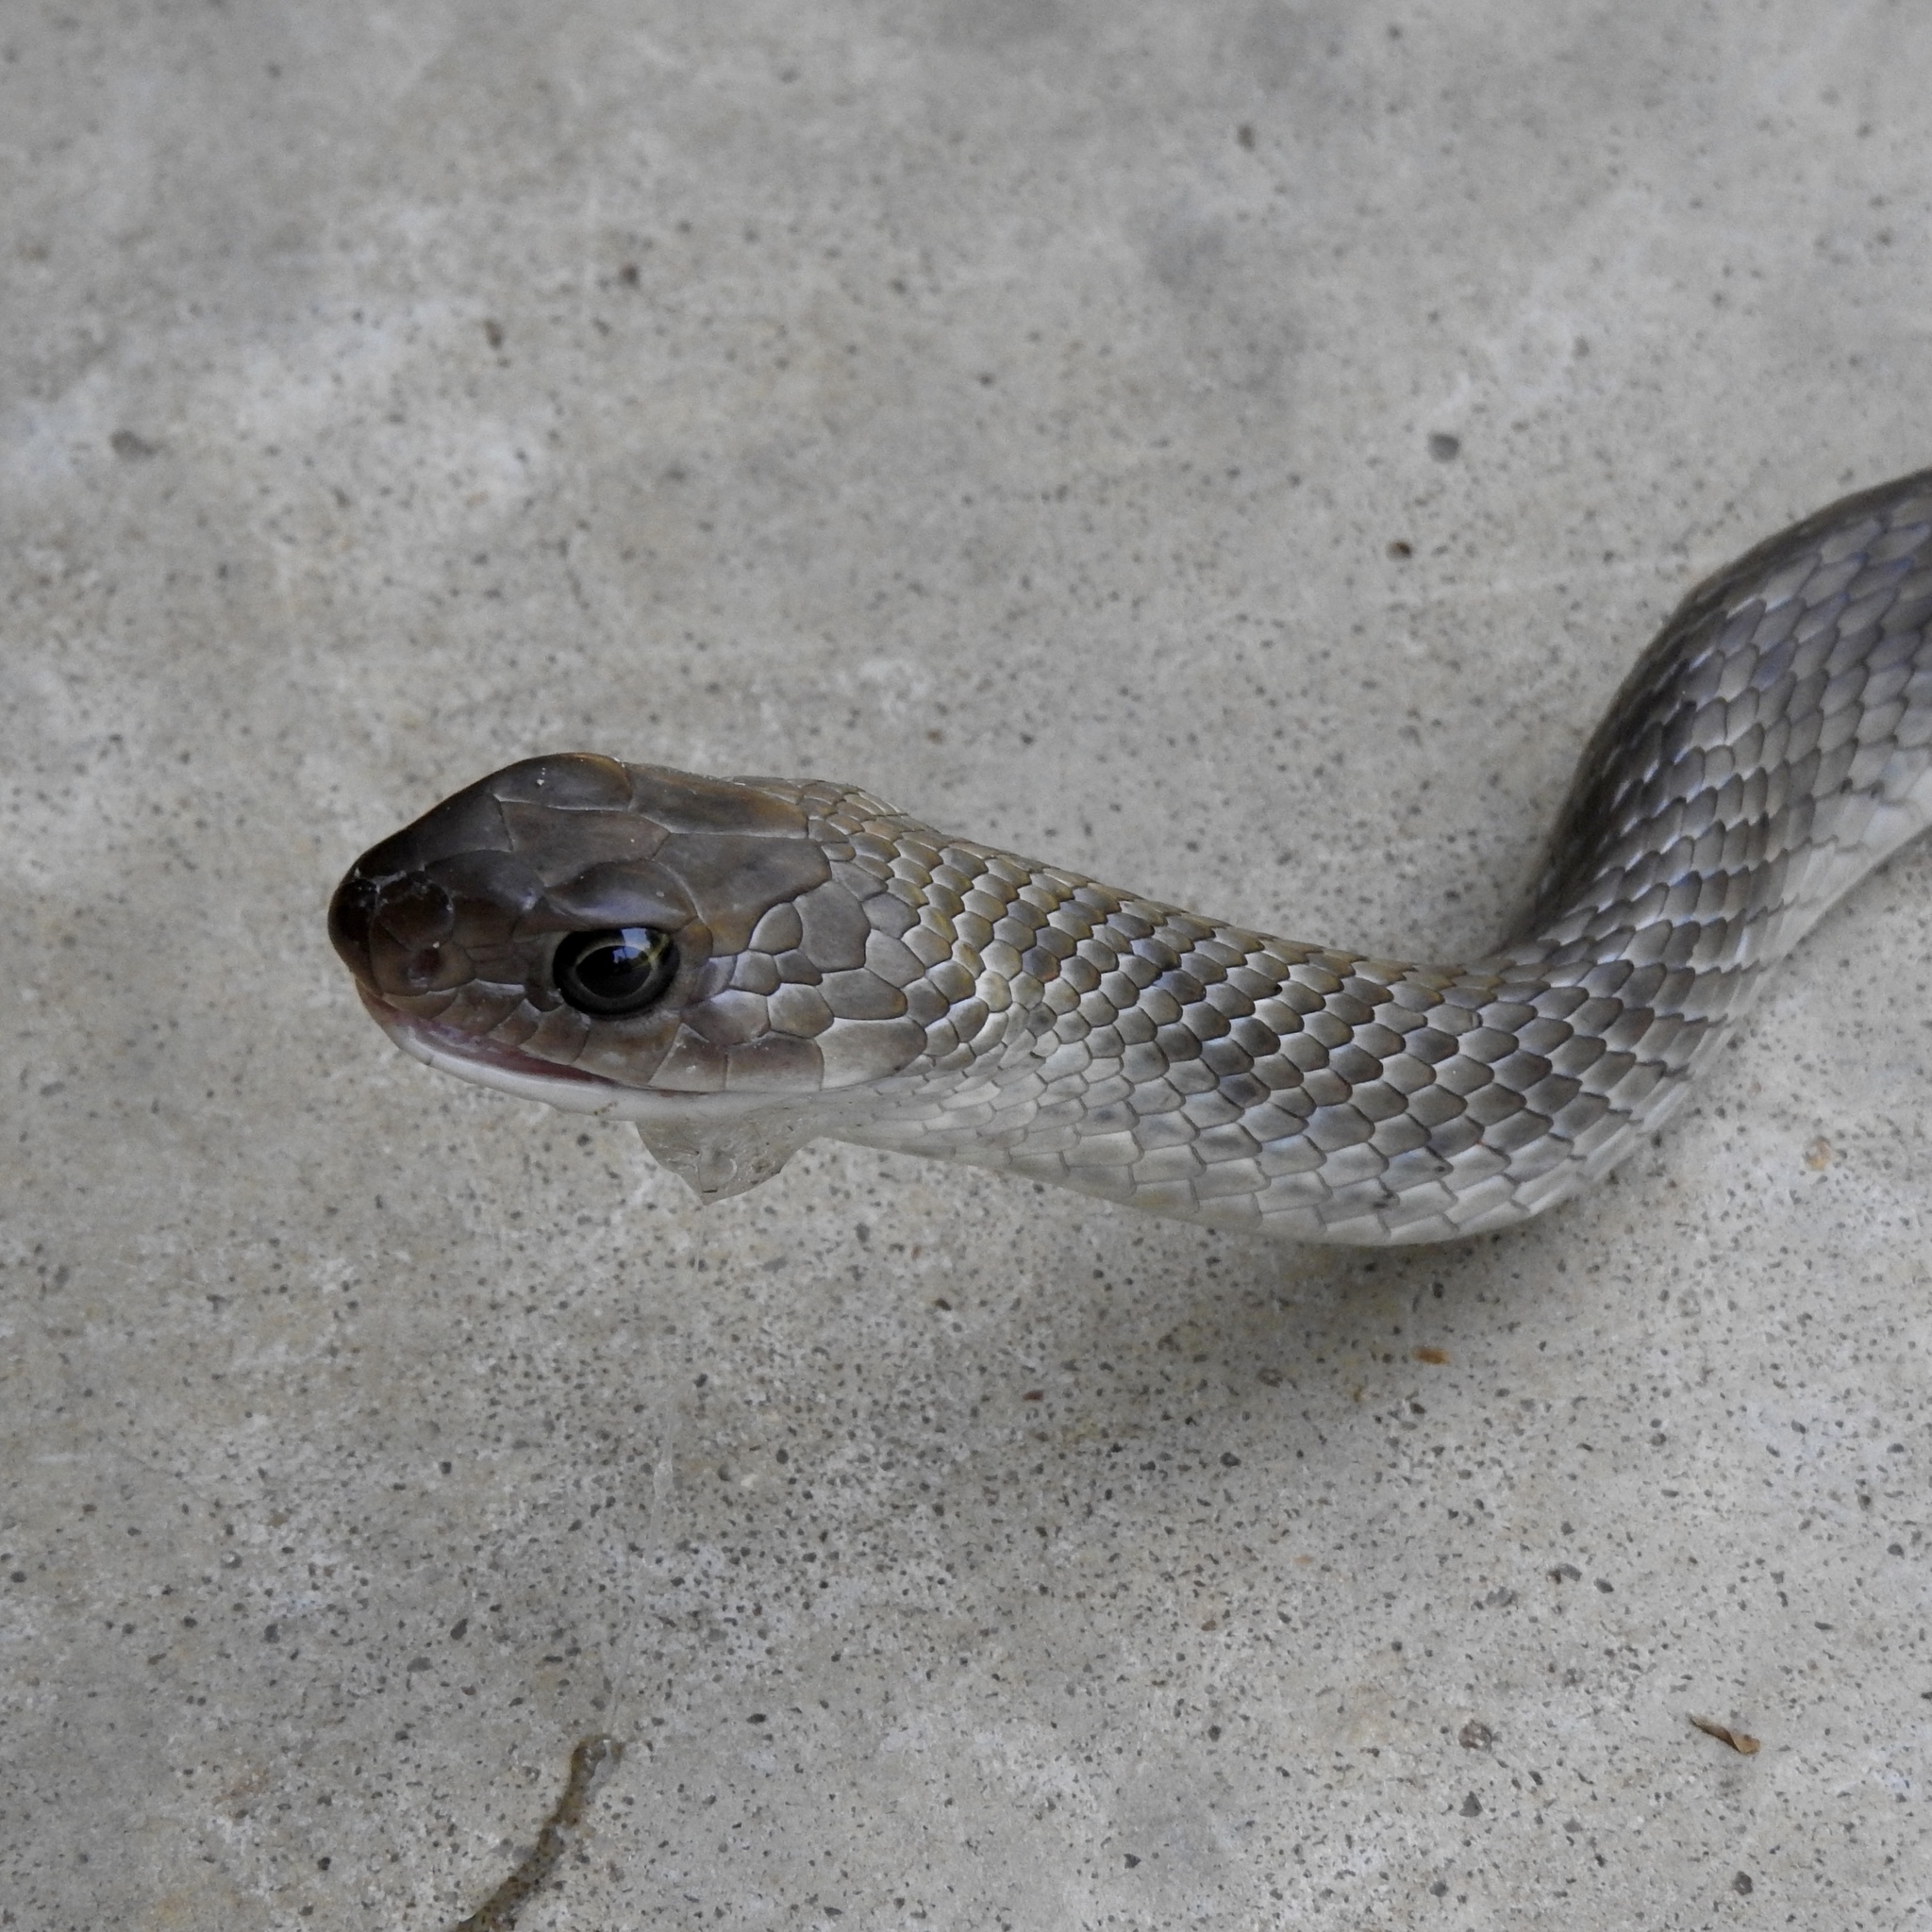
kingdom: Animalia
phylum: Chordata
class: Squamata
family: Colubridae
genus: Coluber
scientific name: Coluber constrictor
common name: Eastern racer
